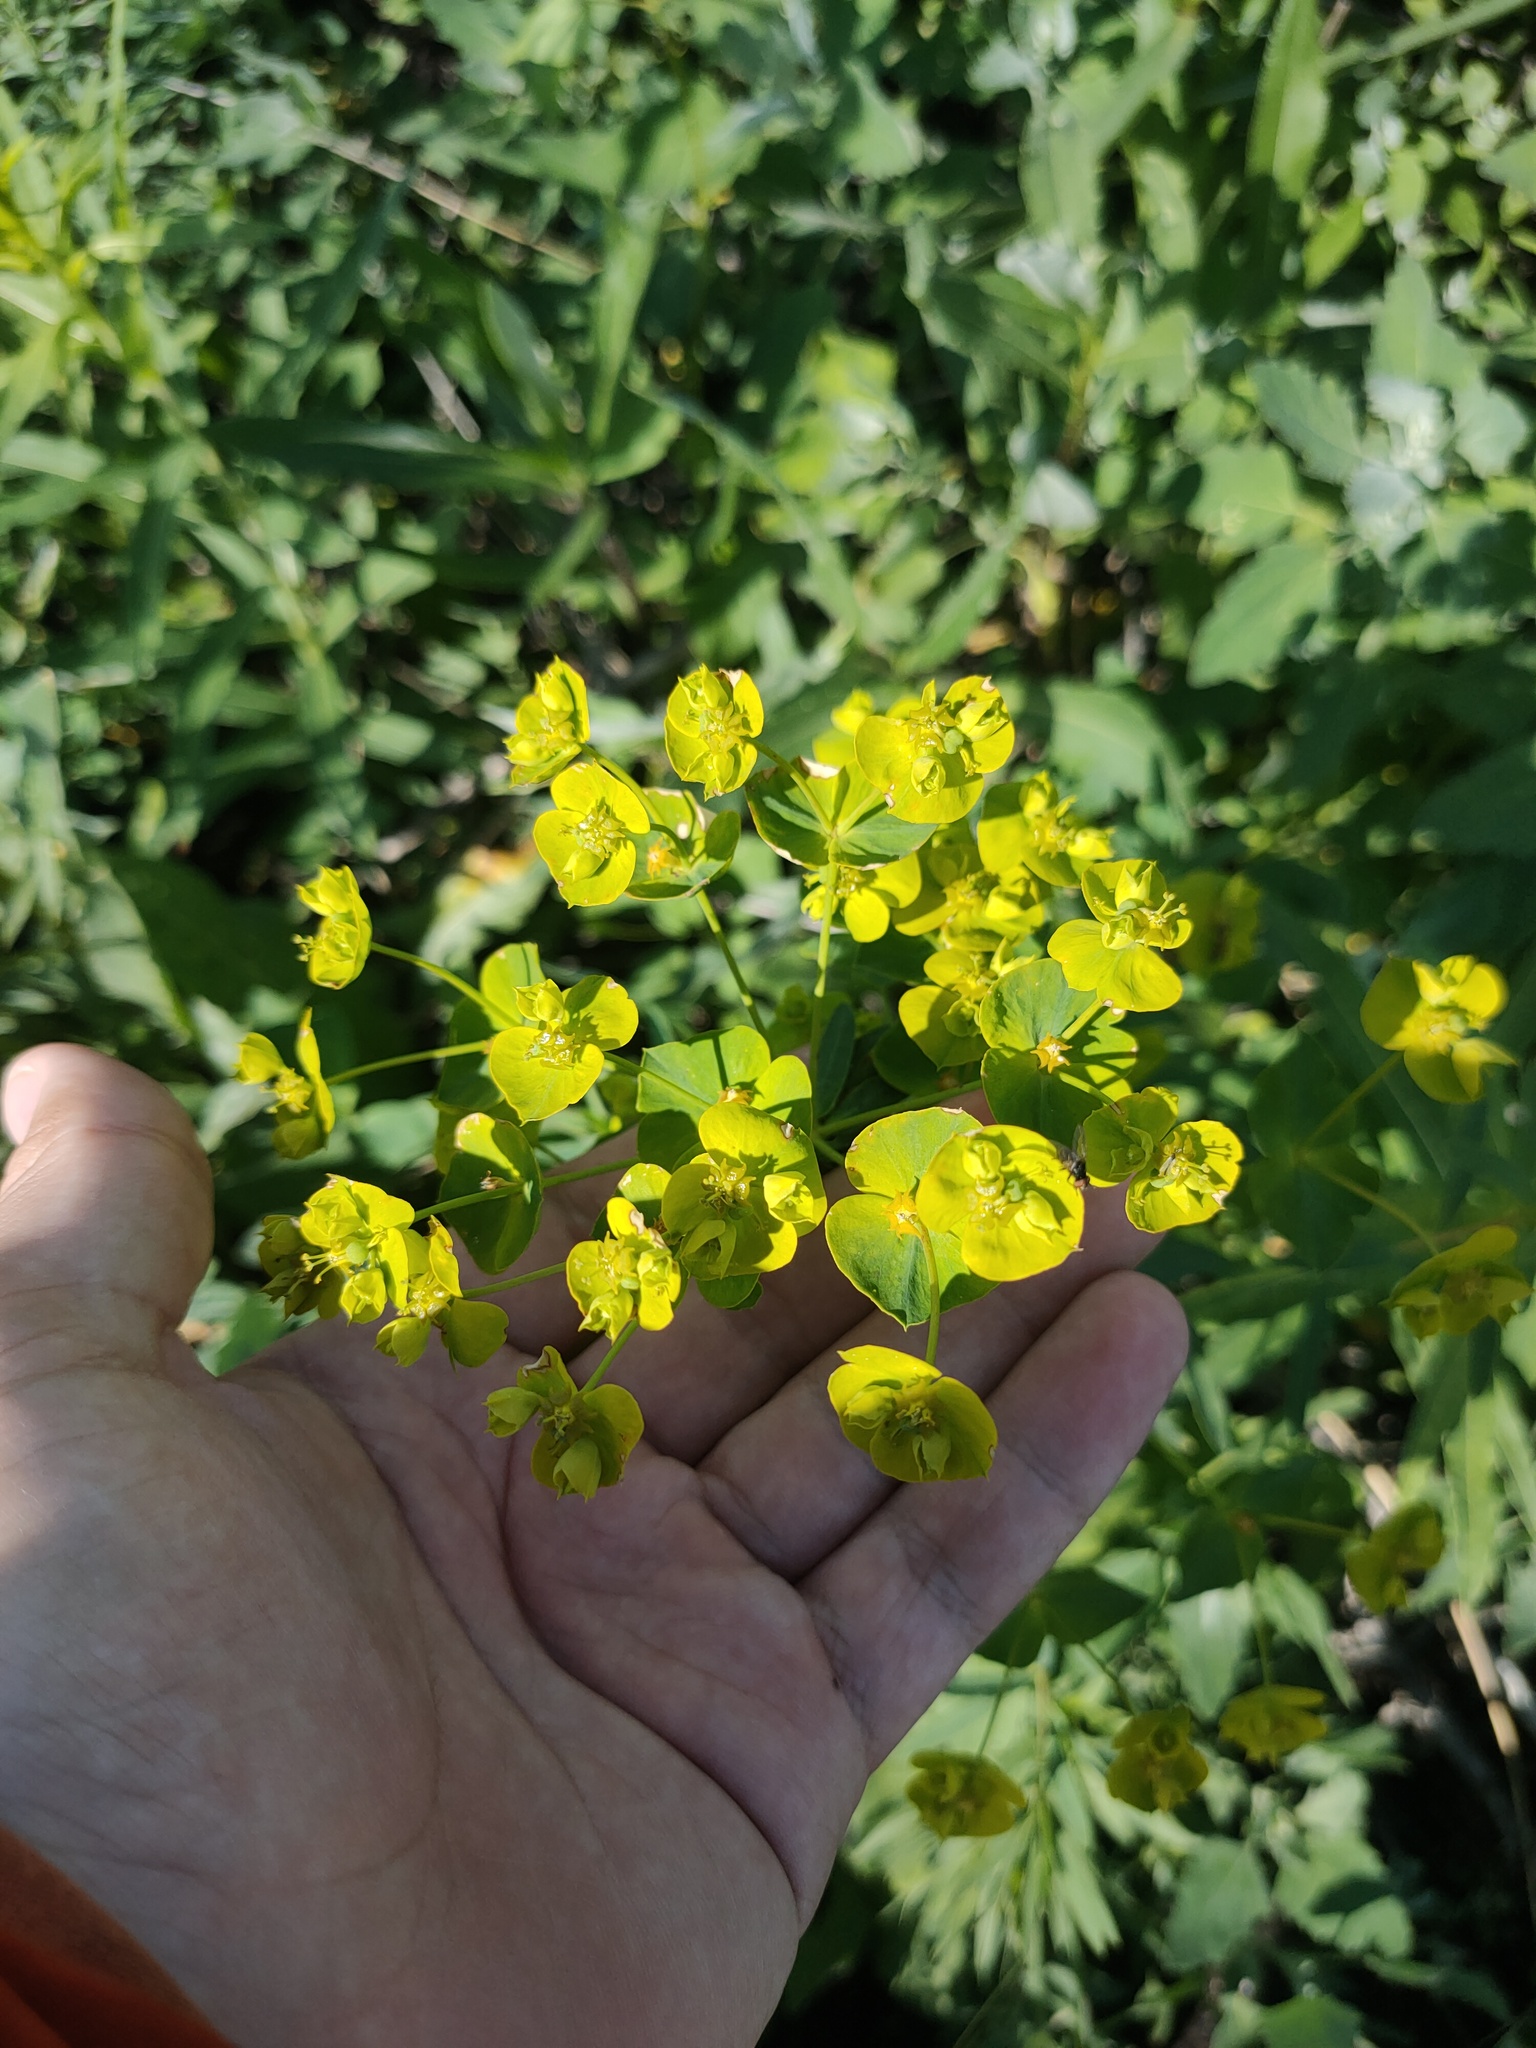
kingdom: Plantae
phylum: Tracheophyta
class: Magnoliopsida
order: Apiales
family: Apiaceae
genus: Bupleurum
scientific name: Bupleurum aureum
